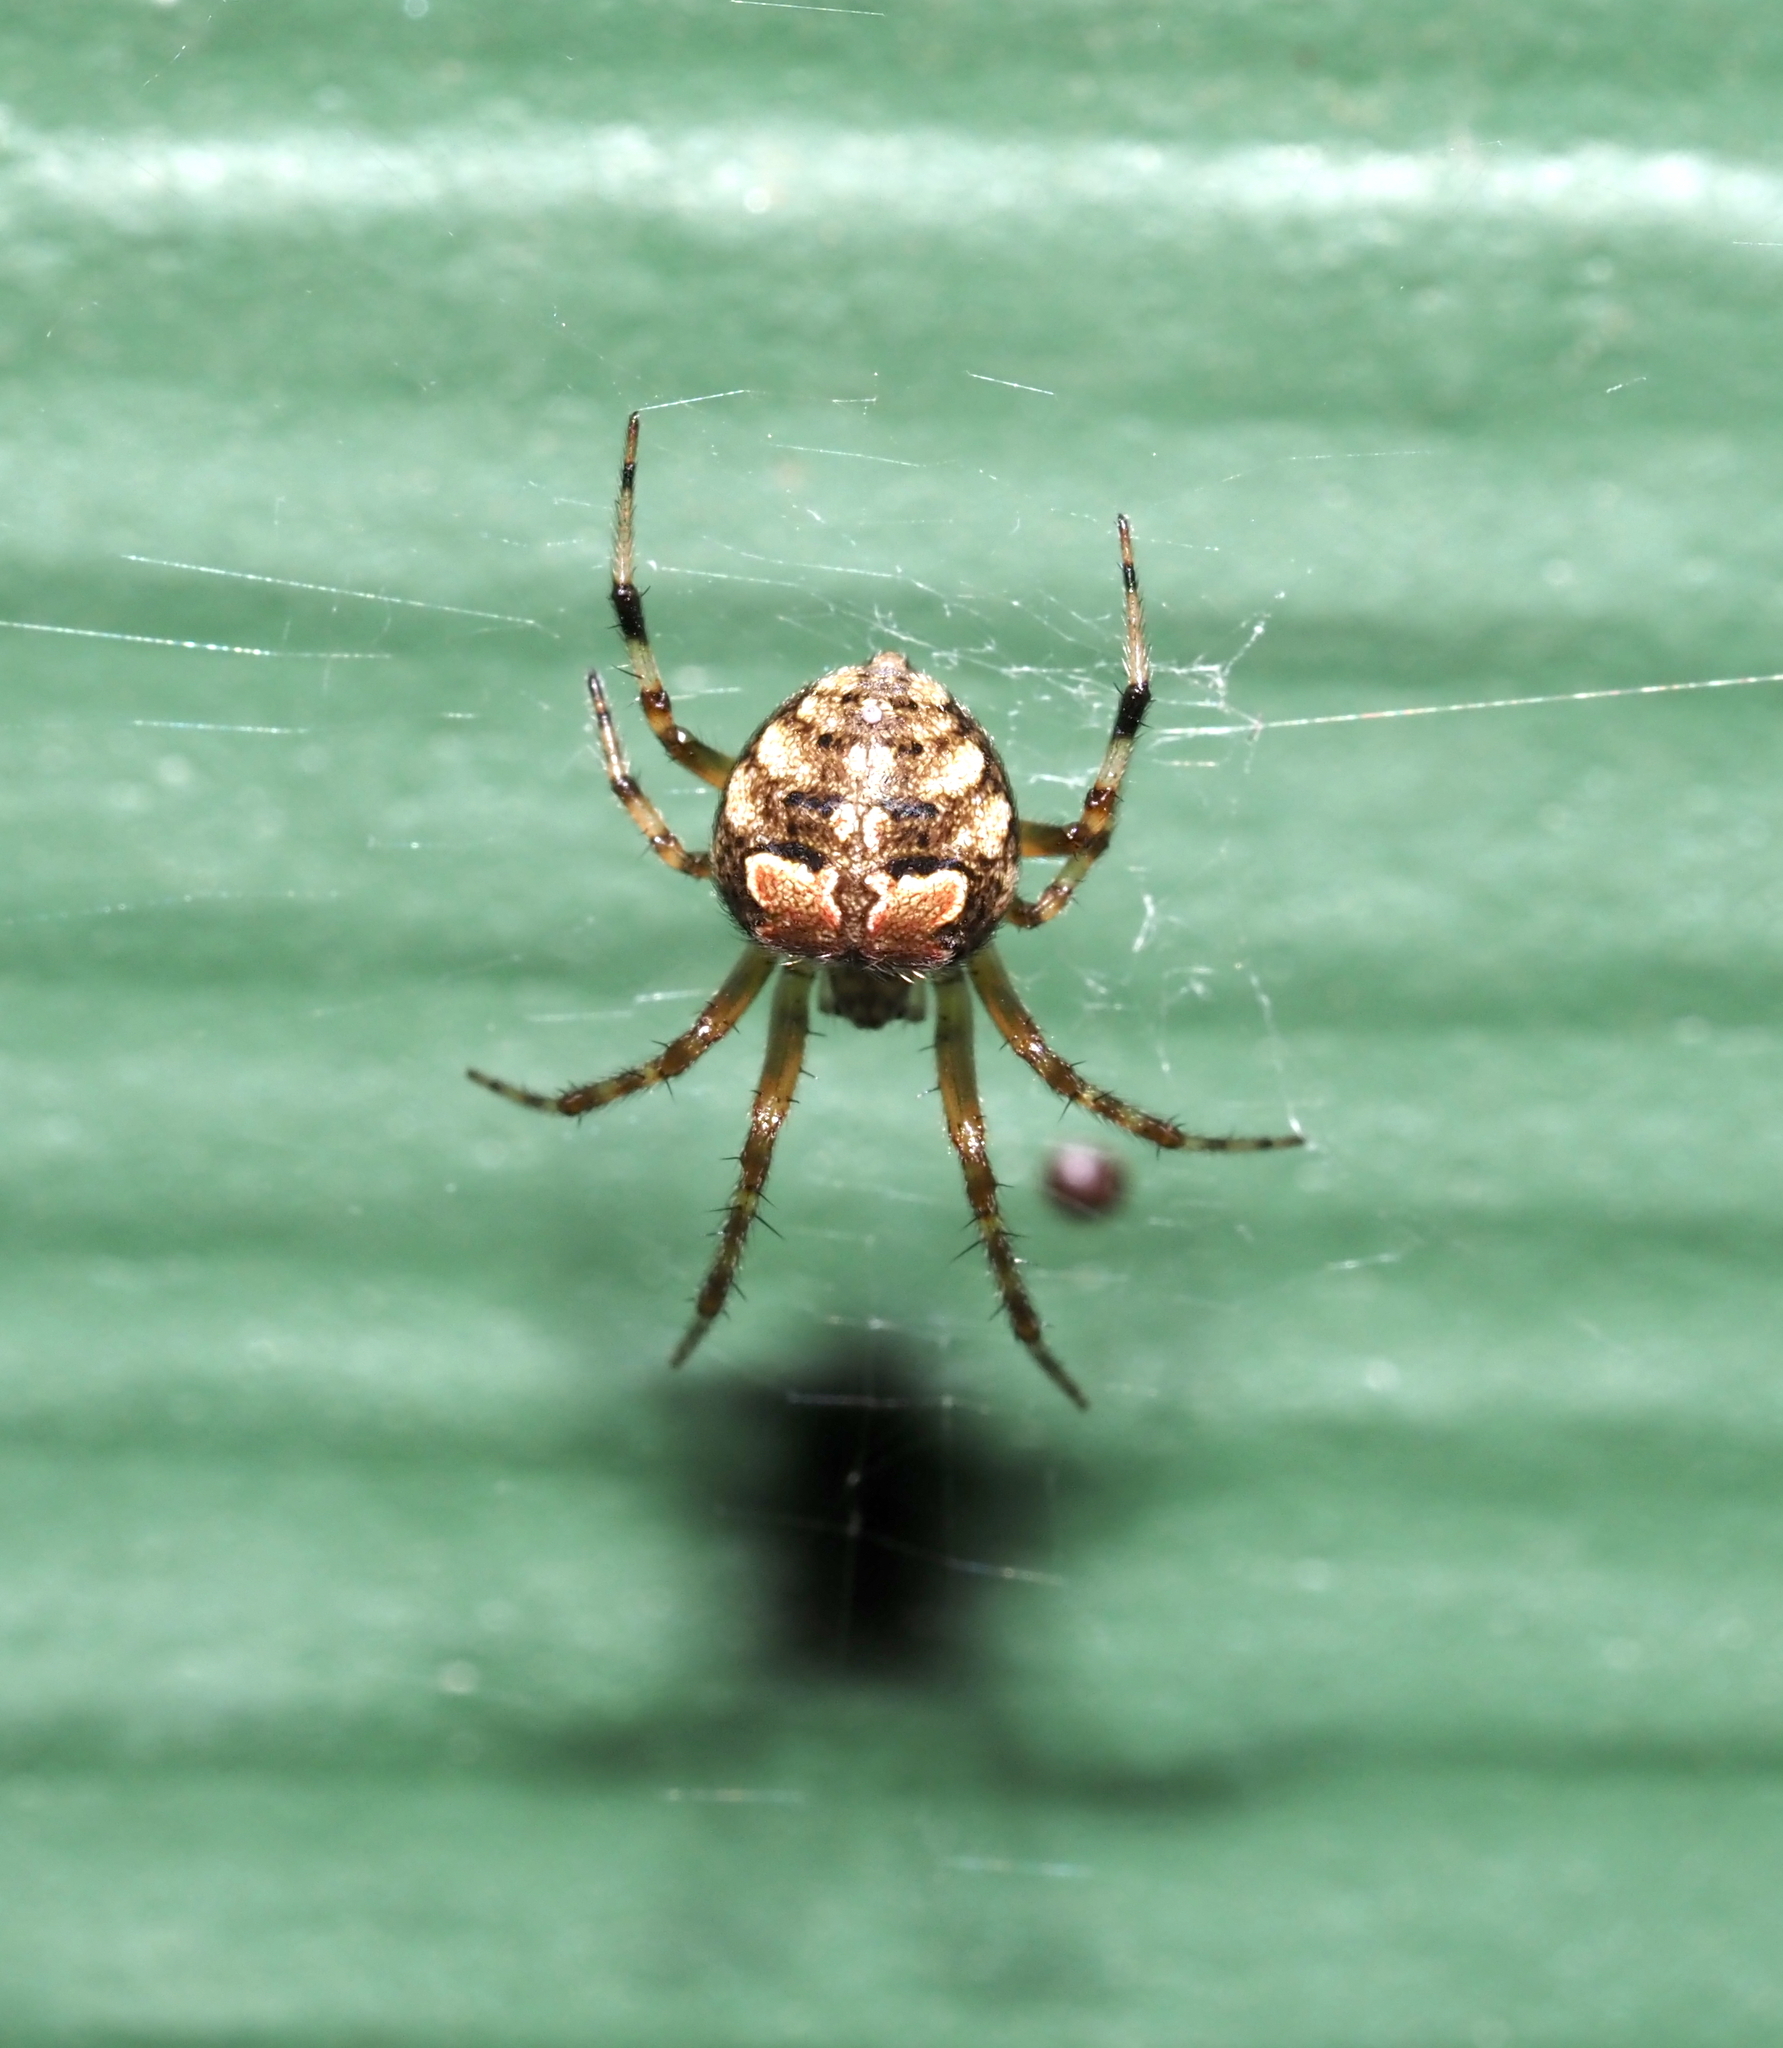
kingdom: Animalia
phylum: Arthropoda
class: Arachnida
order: Araneae
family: Araneidae
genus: Araneus
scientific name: Araneus pegnia
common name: Orb weavers
